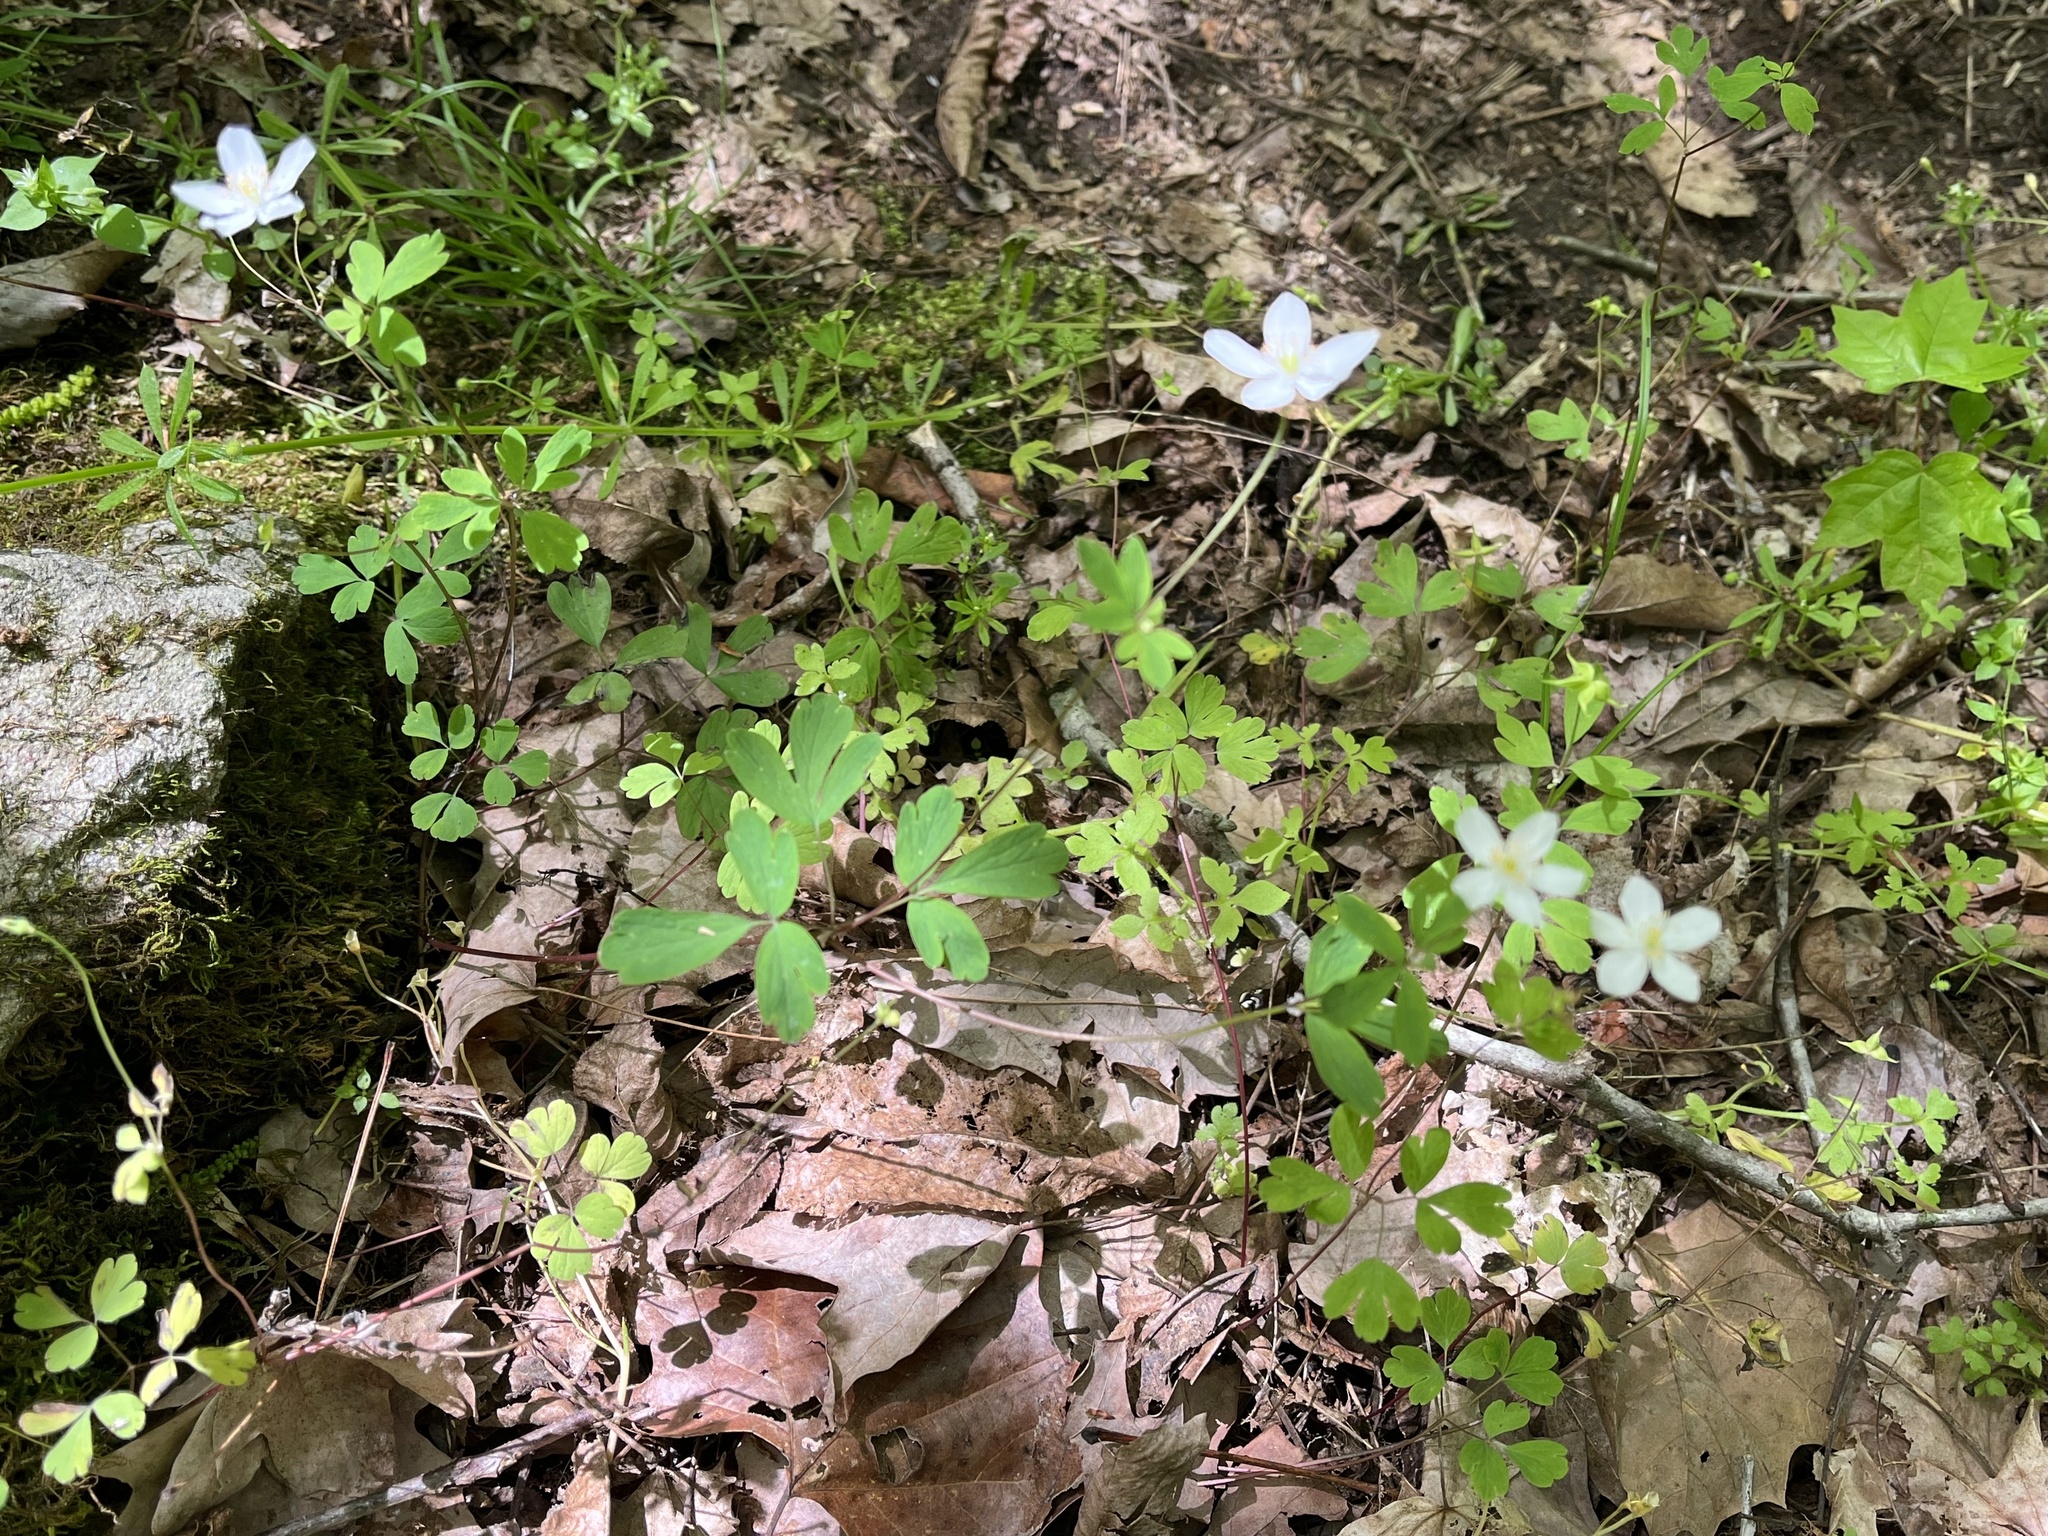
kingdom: Plantae
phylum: Tracheophyta
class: Magnoliopsida
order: Ranunculales
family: Ranunculaceae
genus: Enemion
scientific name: Enemion biternatum
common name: Eastern false rue-anemone
